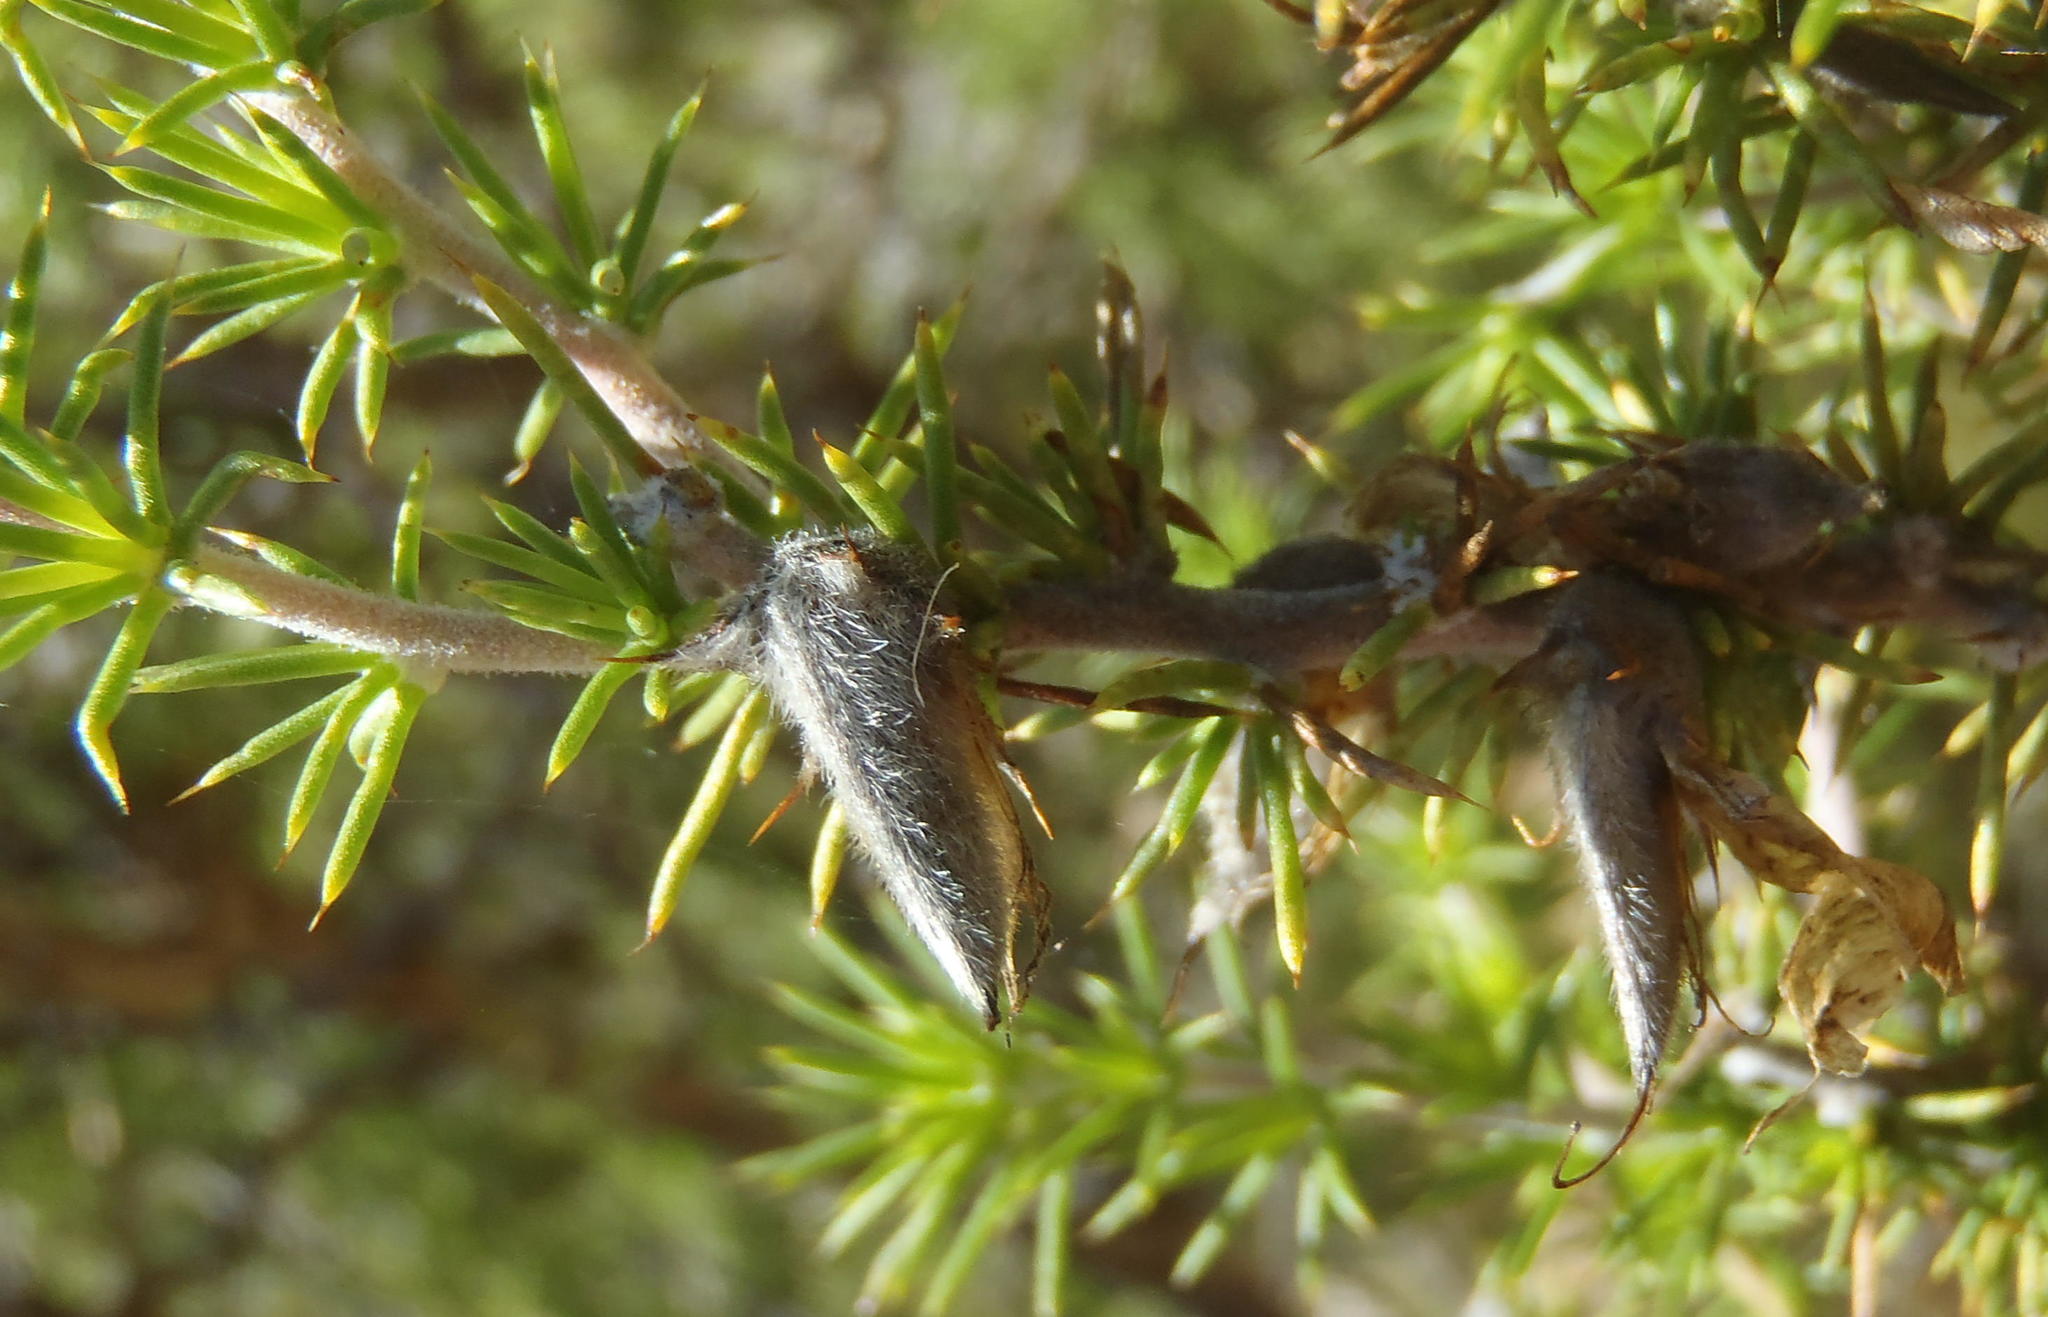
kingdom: Plantae
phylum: Tracheophyta
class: Magnoliopsida
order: Fabales
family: Fabaceae
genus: Aspalathus
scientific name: Aspalathus hirta
